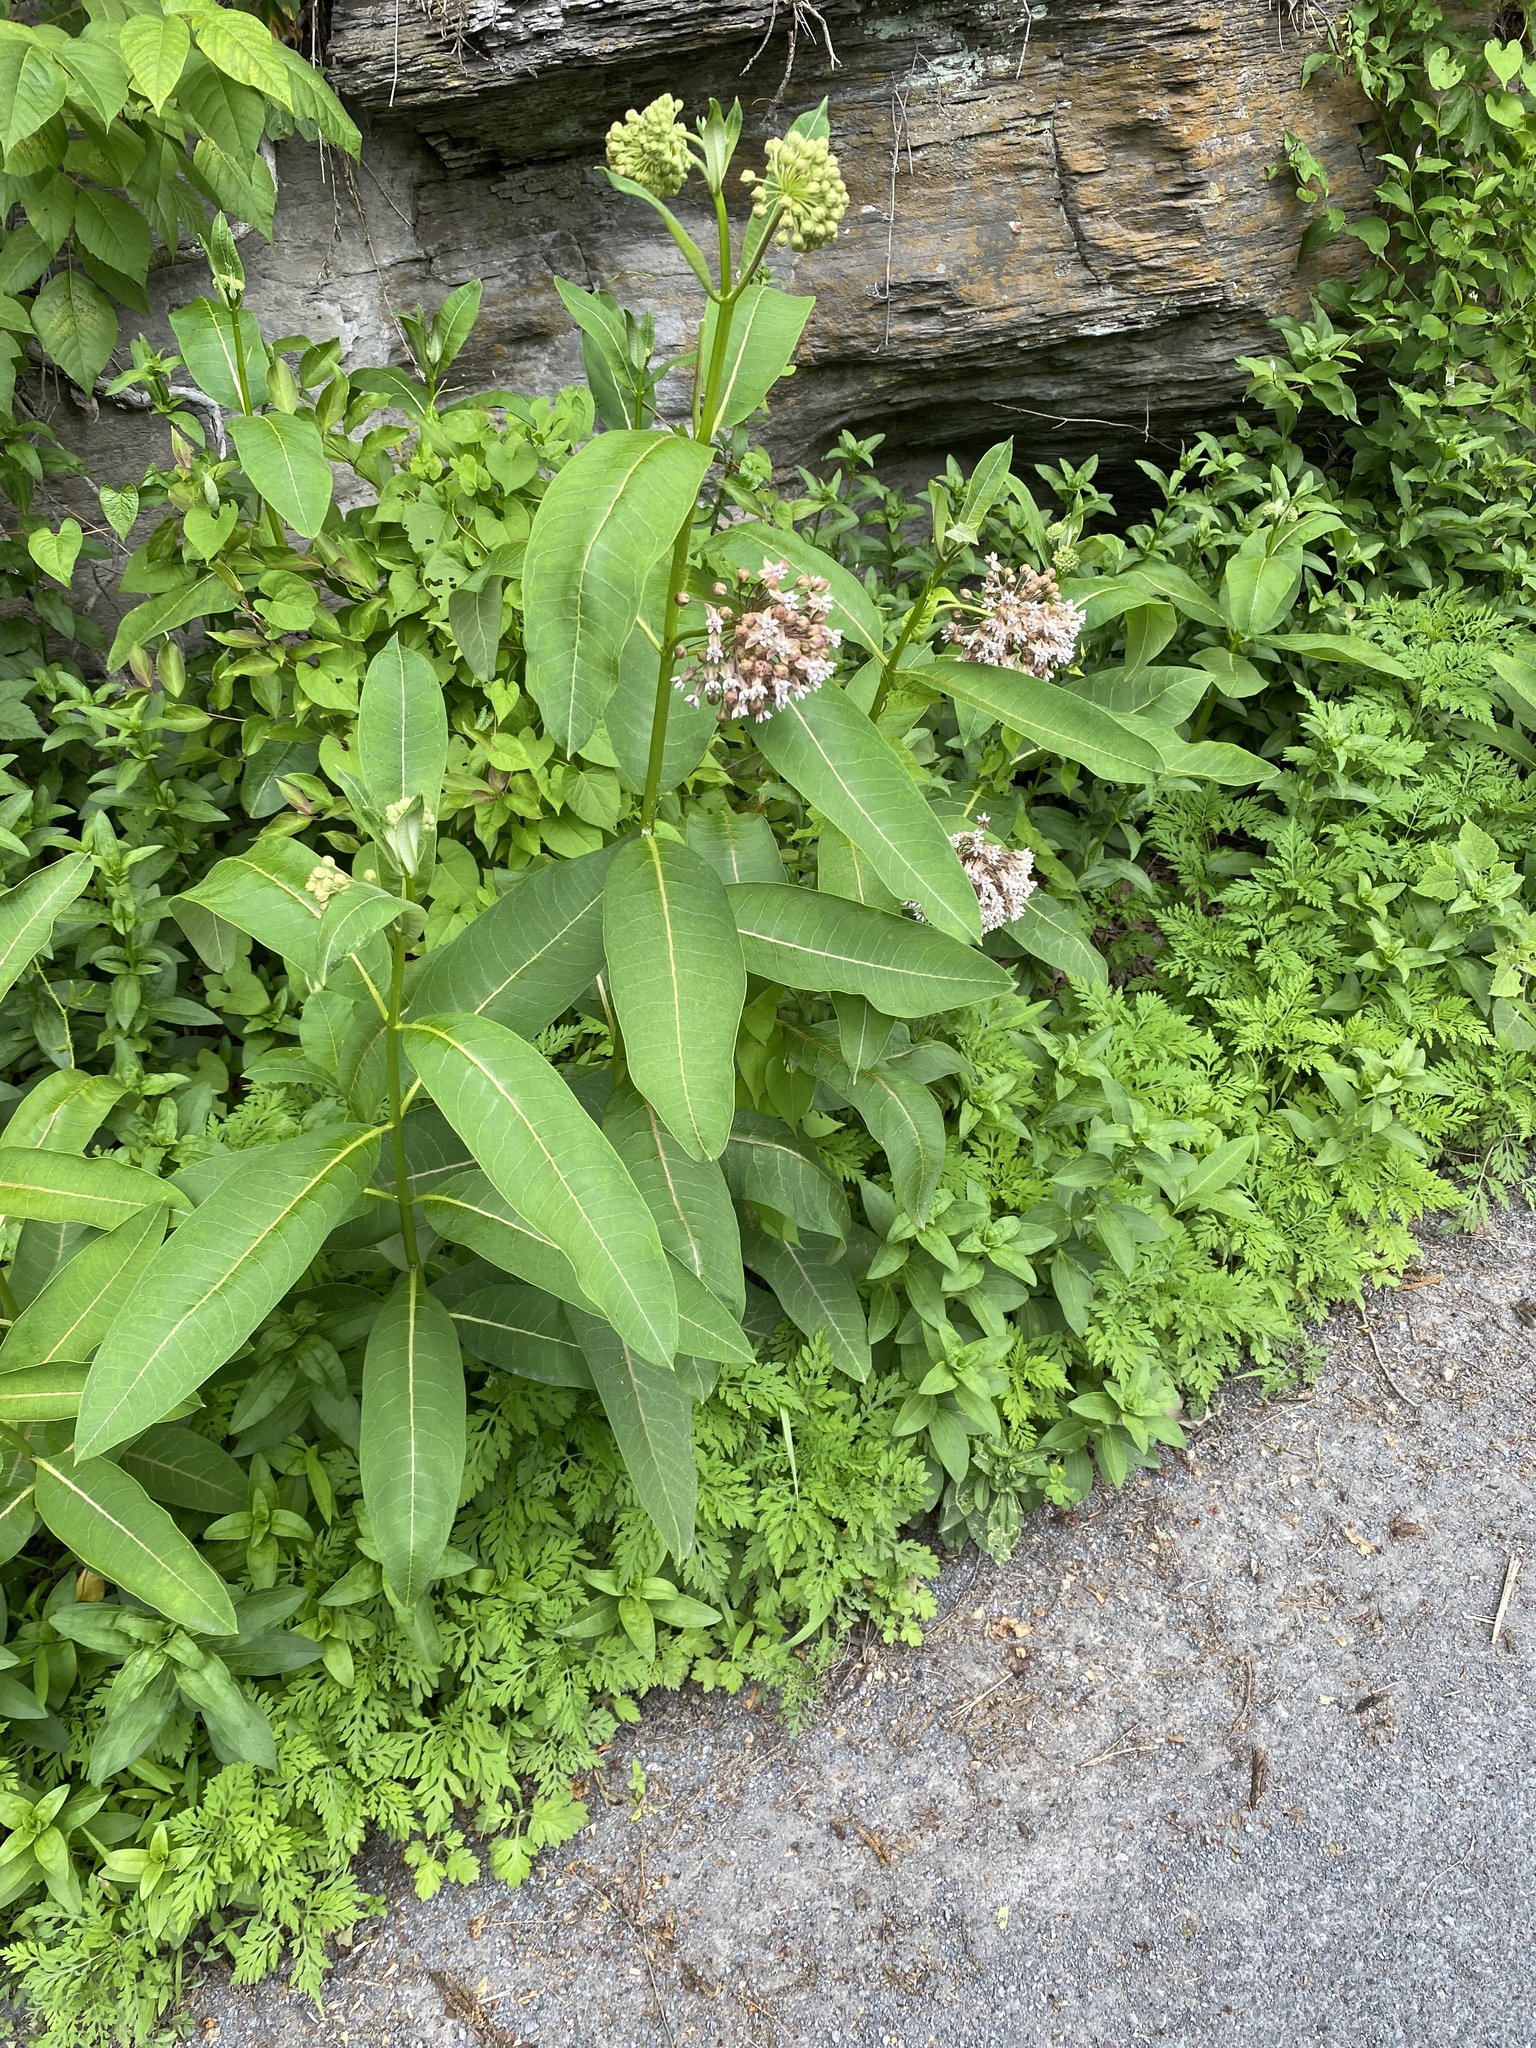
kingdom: Plantae
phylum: Tracheophyta
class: Magnoliopsida
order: Gentianales
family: Apocynaceae
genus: Asclepias
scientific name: Asclepias syriaca
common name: Common milkweed
